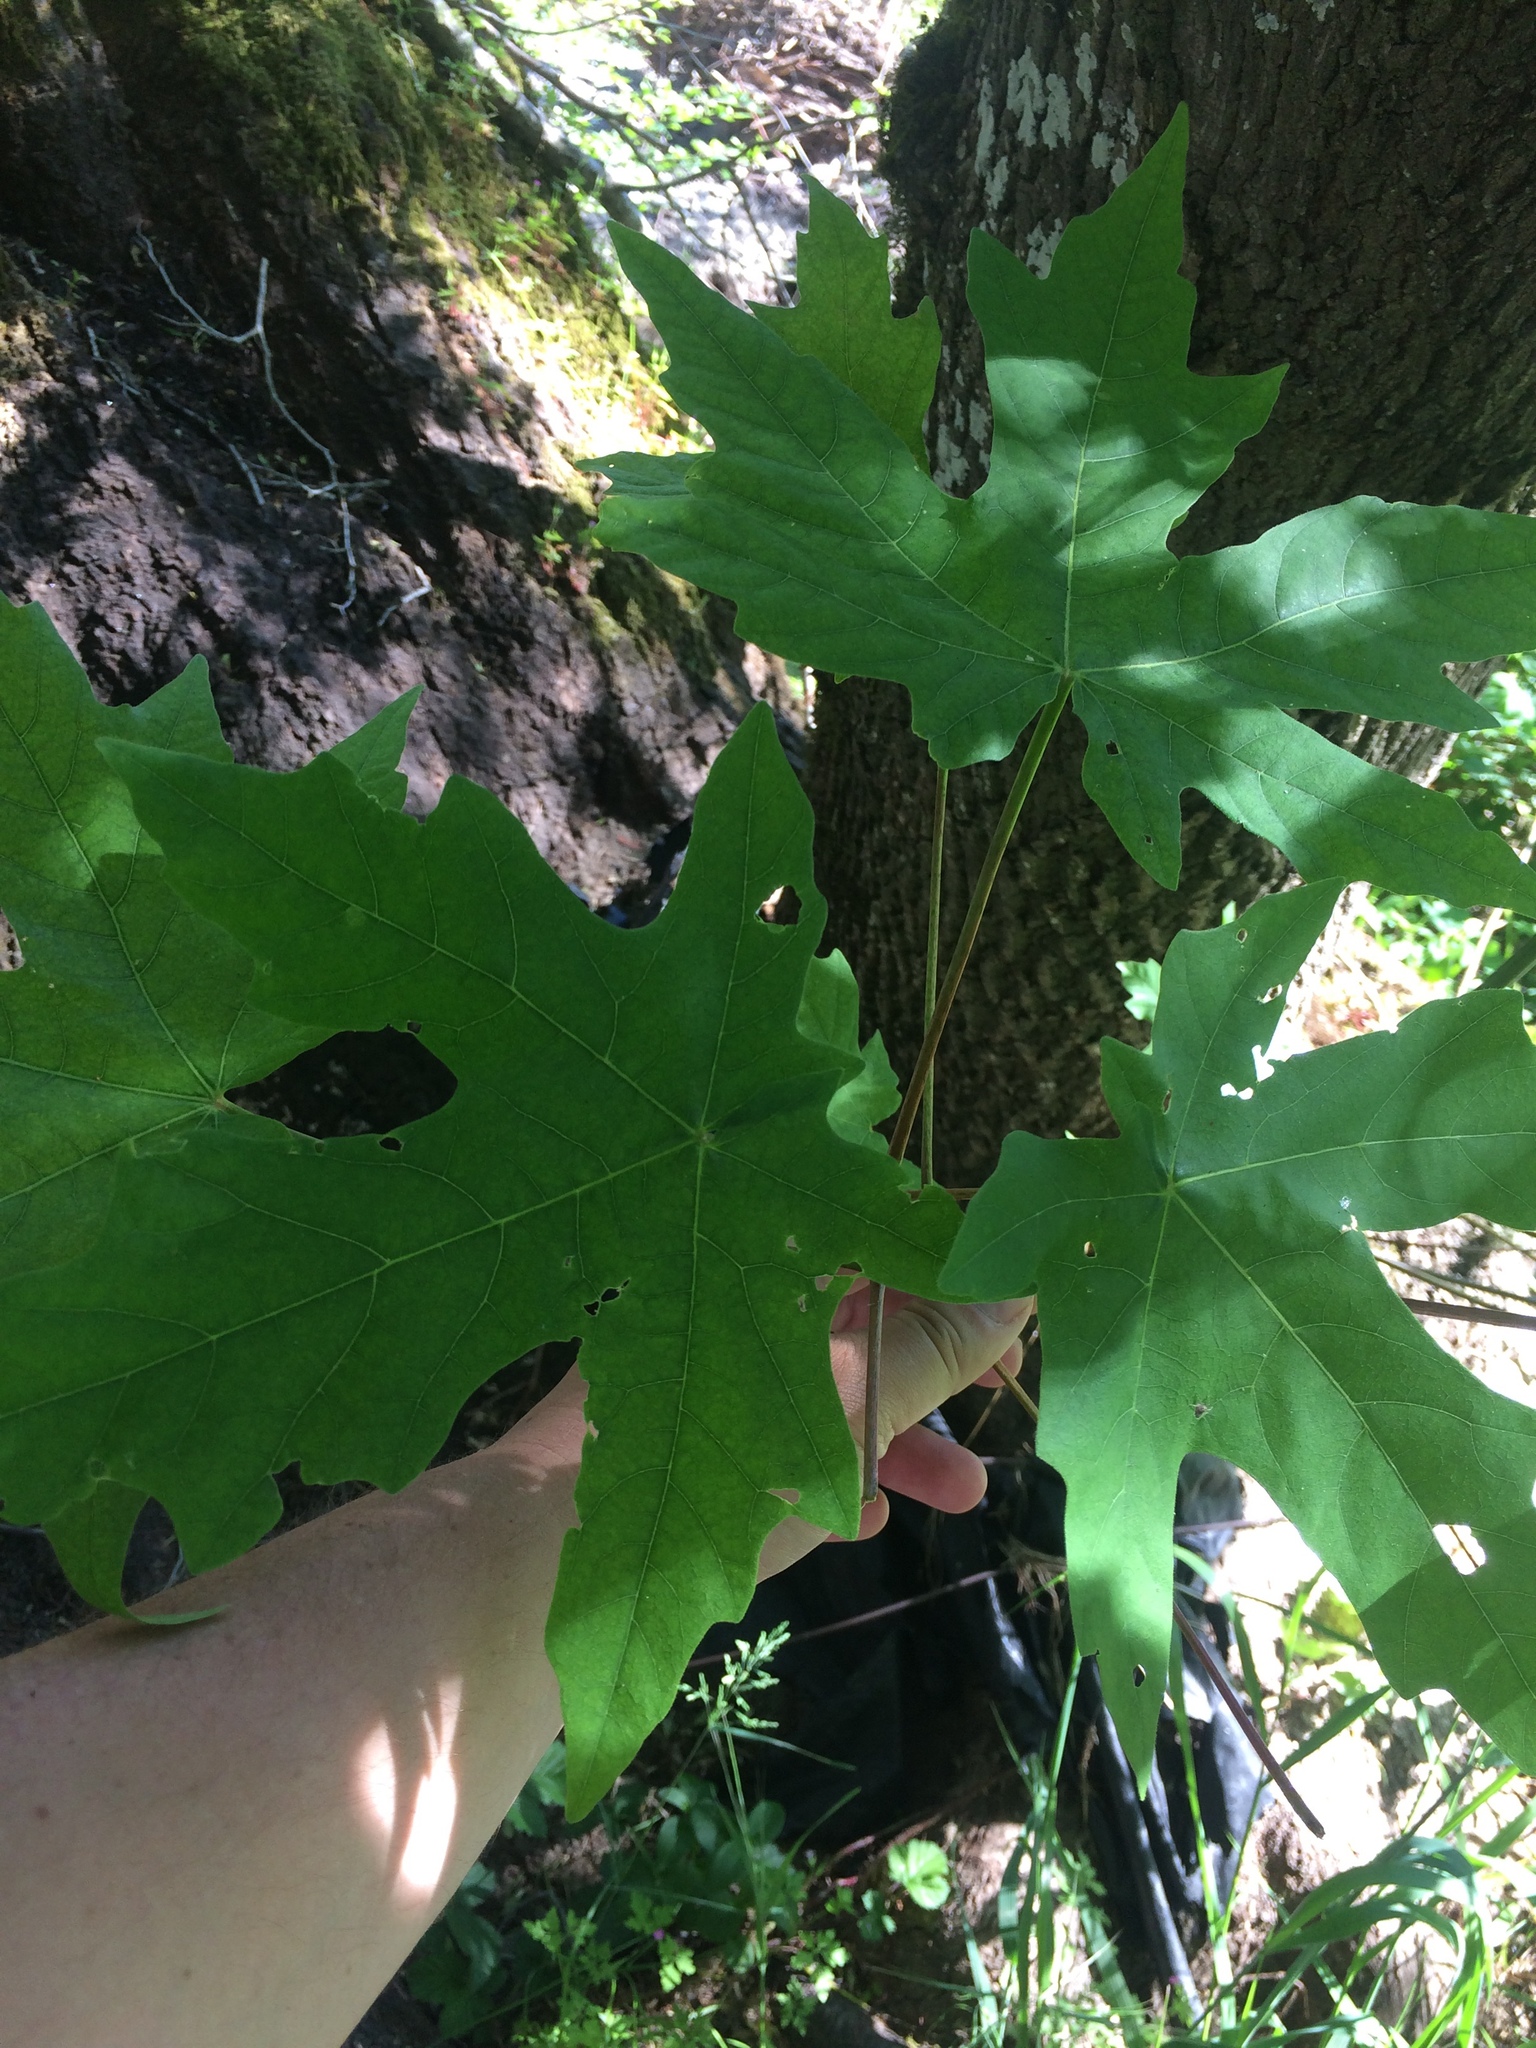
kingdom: Plantae
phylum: Tracheophyta
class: Magnoliopsida
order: Sapindales
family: Sapindaceae
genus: Acer
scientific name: Acer macrophyllum
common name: Oregon maple
